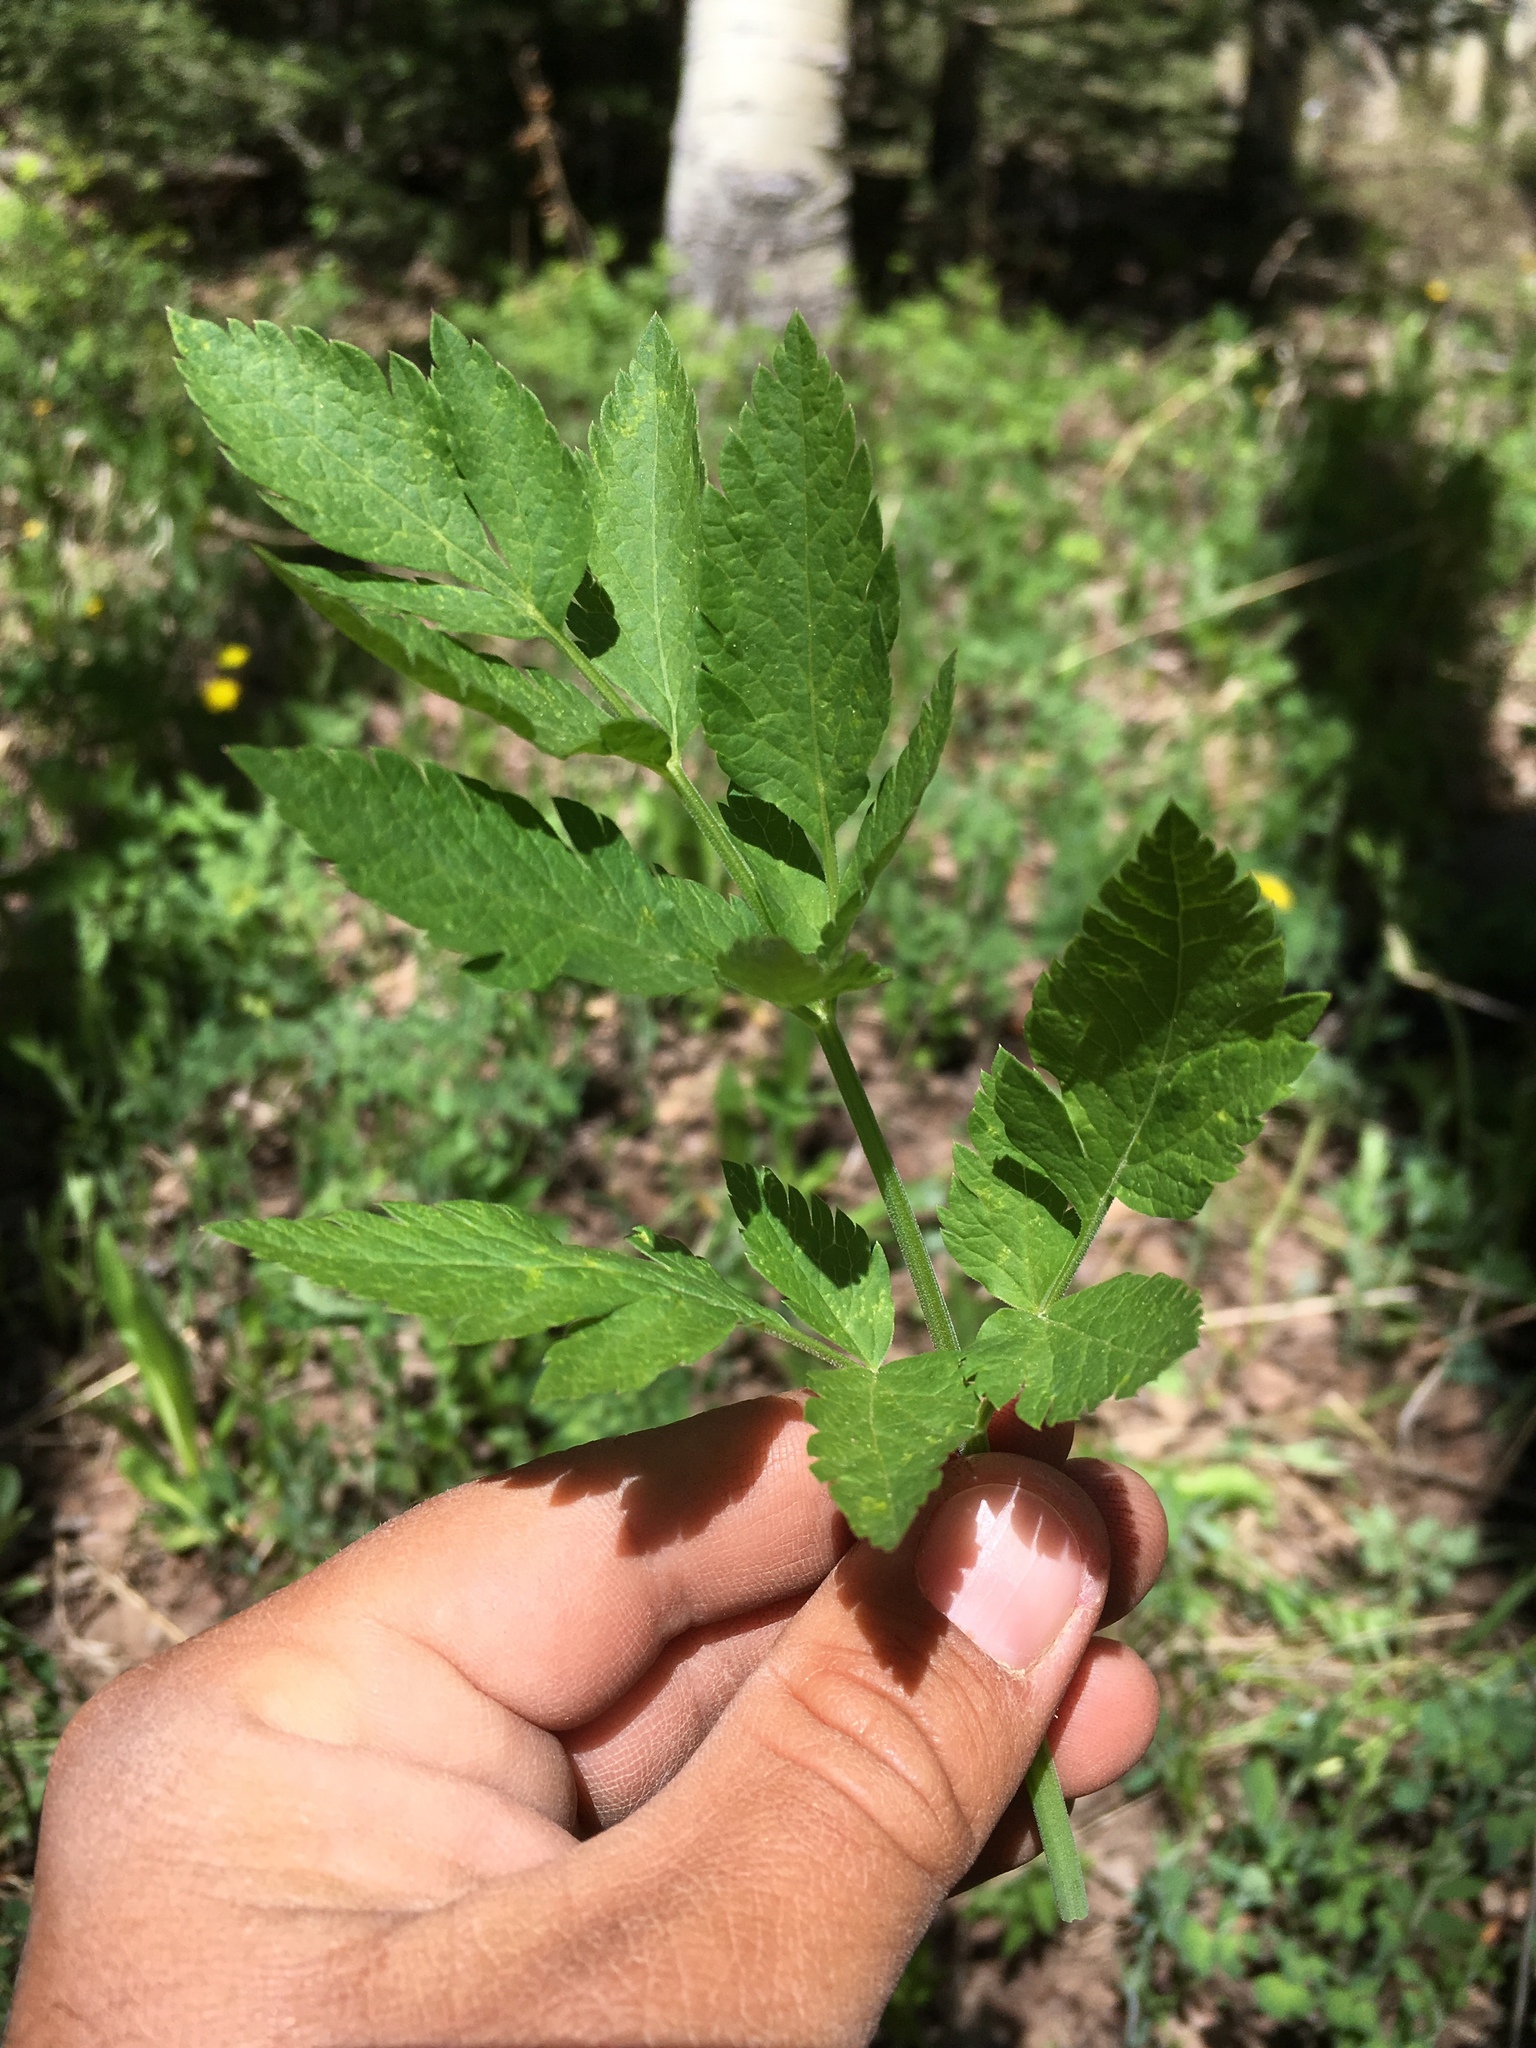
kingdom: Plantae
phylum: Tracheophyta
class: Magnoliopsida
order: Apiales
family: Apiaceae
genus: Osmorhiza
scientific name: Osmorhiza occidentalis
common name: Western sweet cicely
